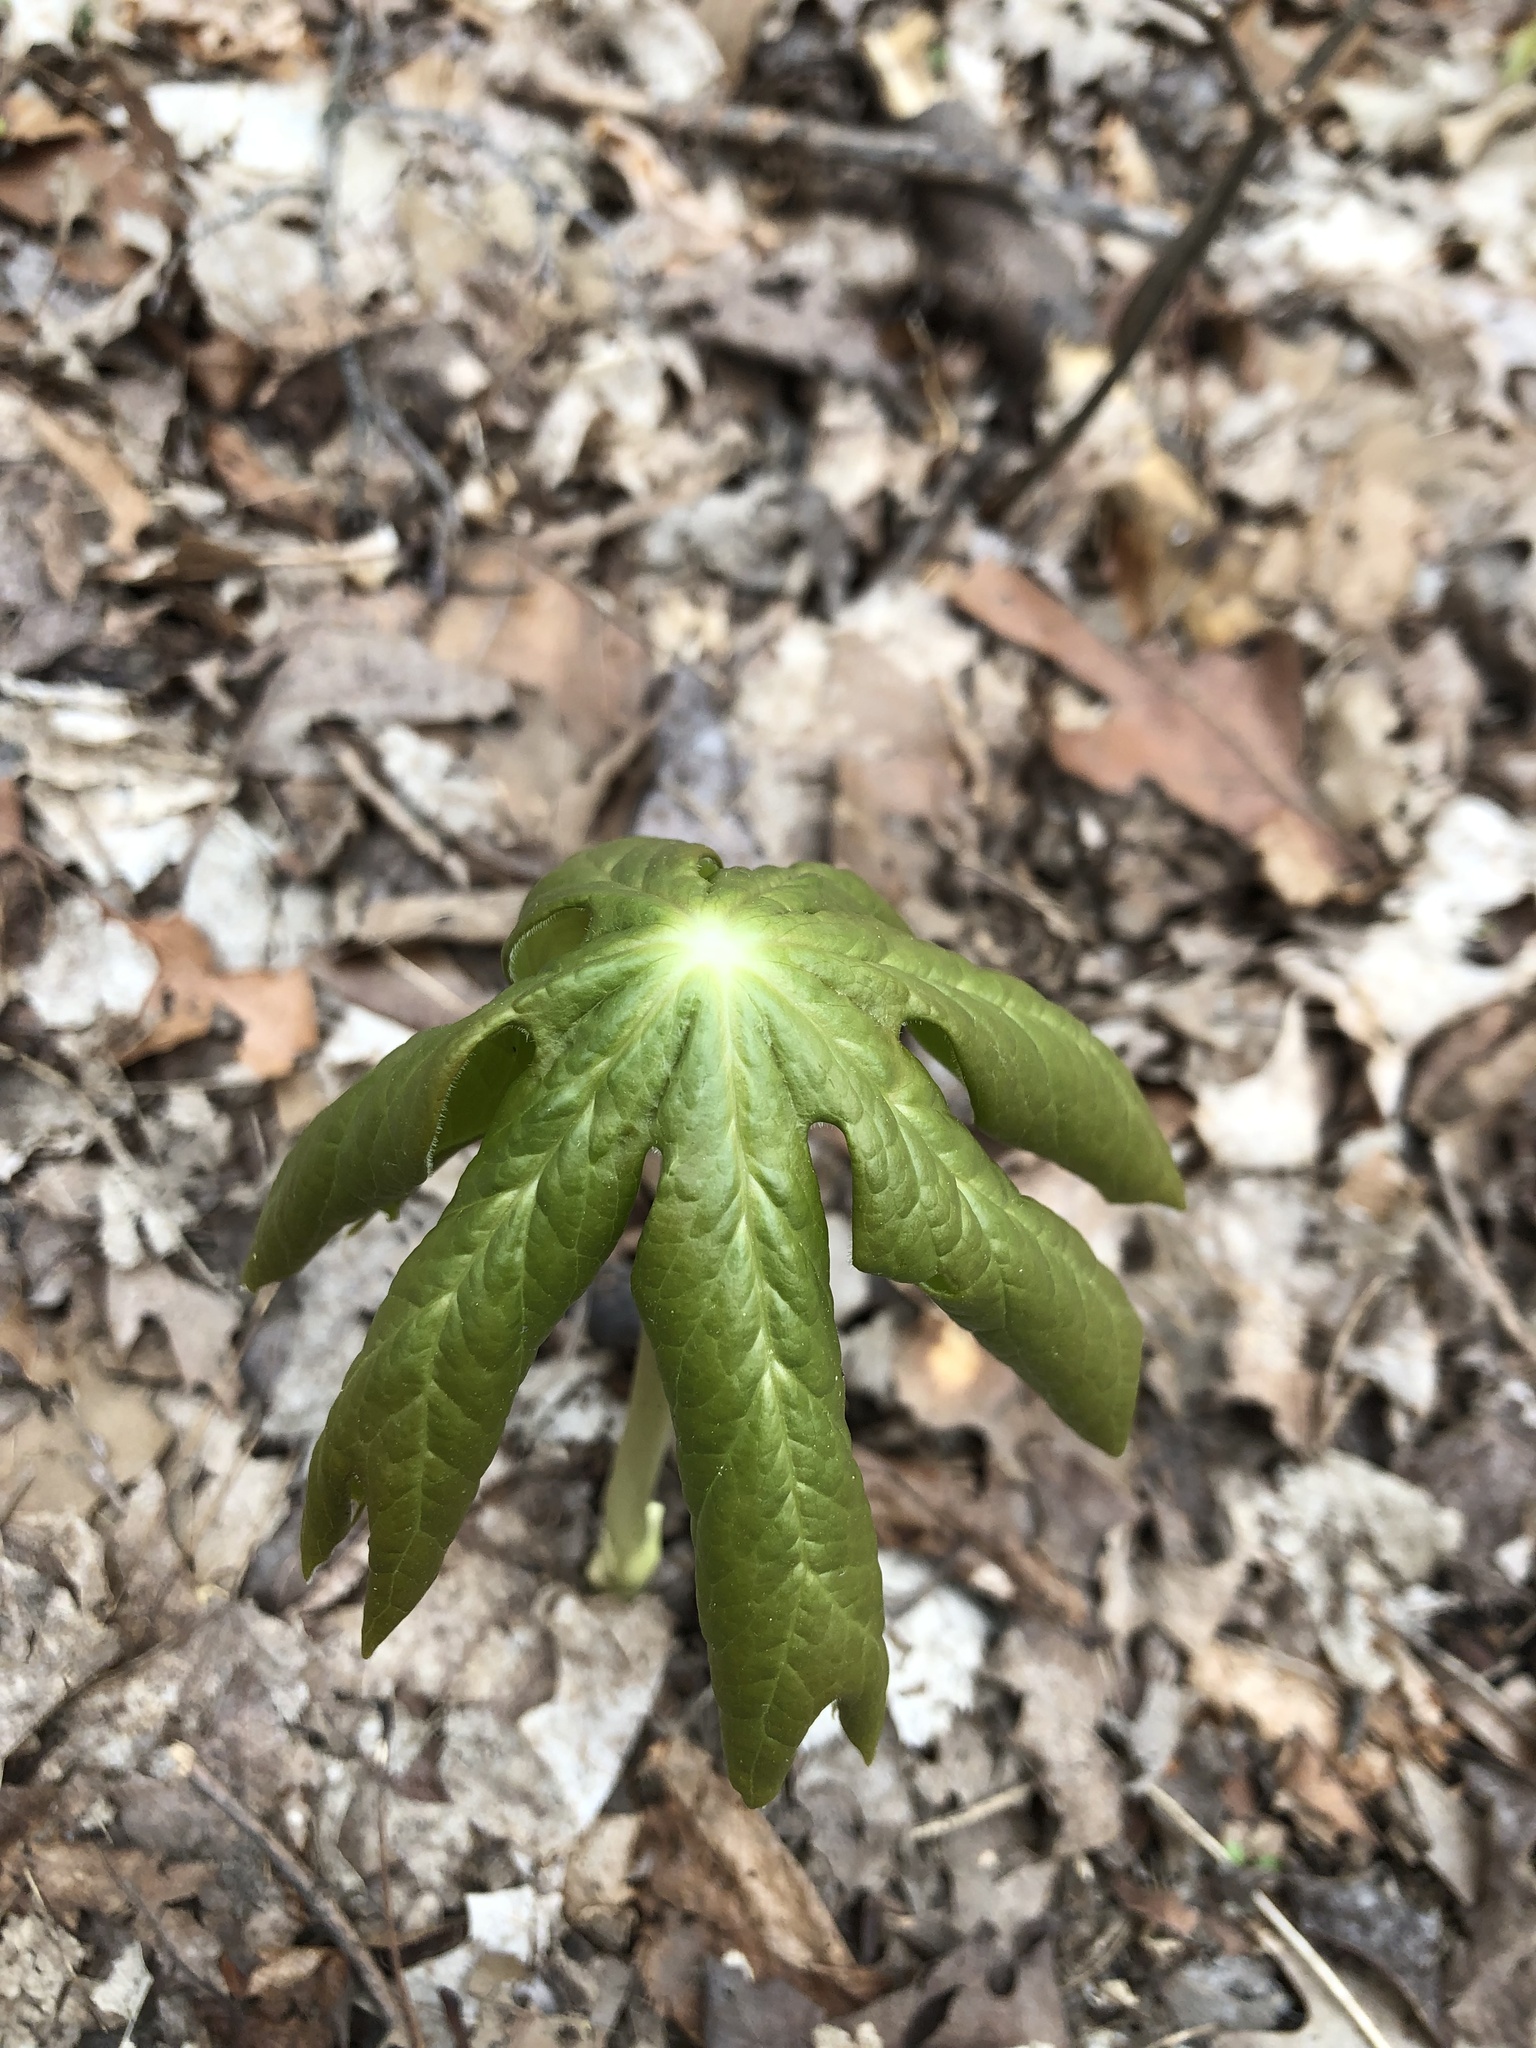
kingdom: Plantae
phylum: Tracheophyta
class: Magnoliopsida
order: Ranunculales
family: Berberidaceae
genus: Podophyllum
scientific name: Podophyllum peltatum
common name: Wild mandrake
